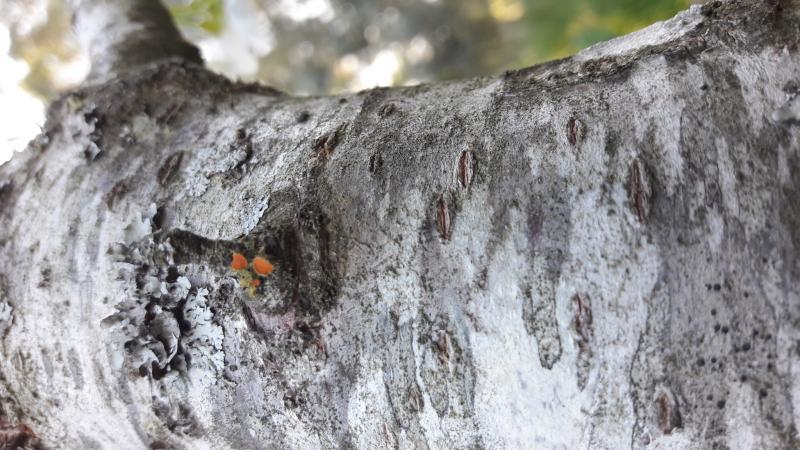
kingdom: Fungi
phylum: Ascomycota
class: Lecanoromycetes
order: Teloschistales
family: Teloschistaceae
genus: Niorma
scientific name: Niorma chrysophthalma
